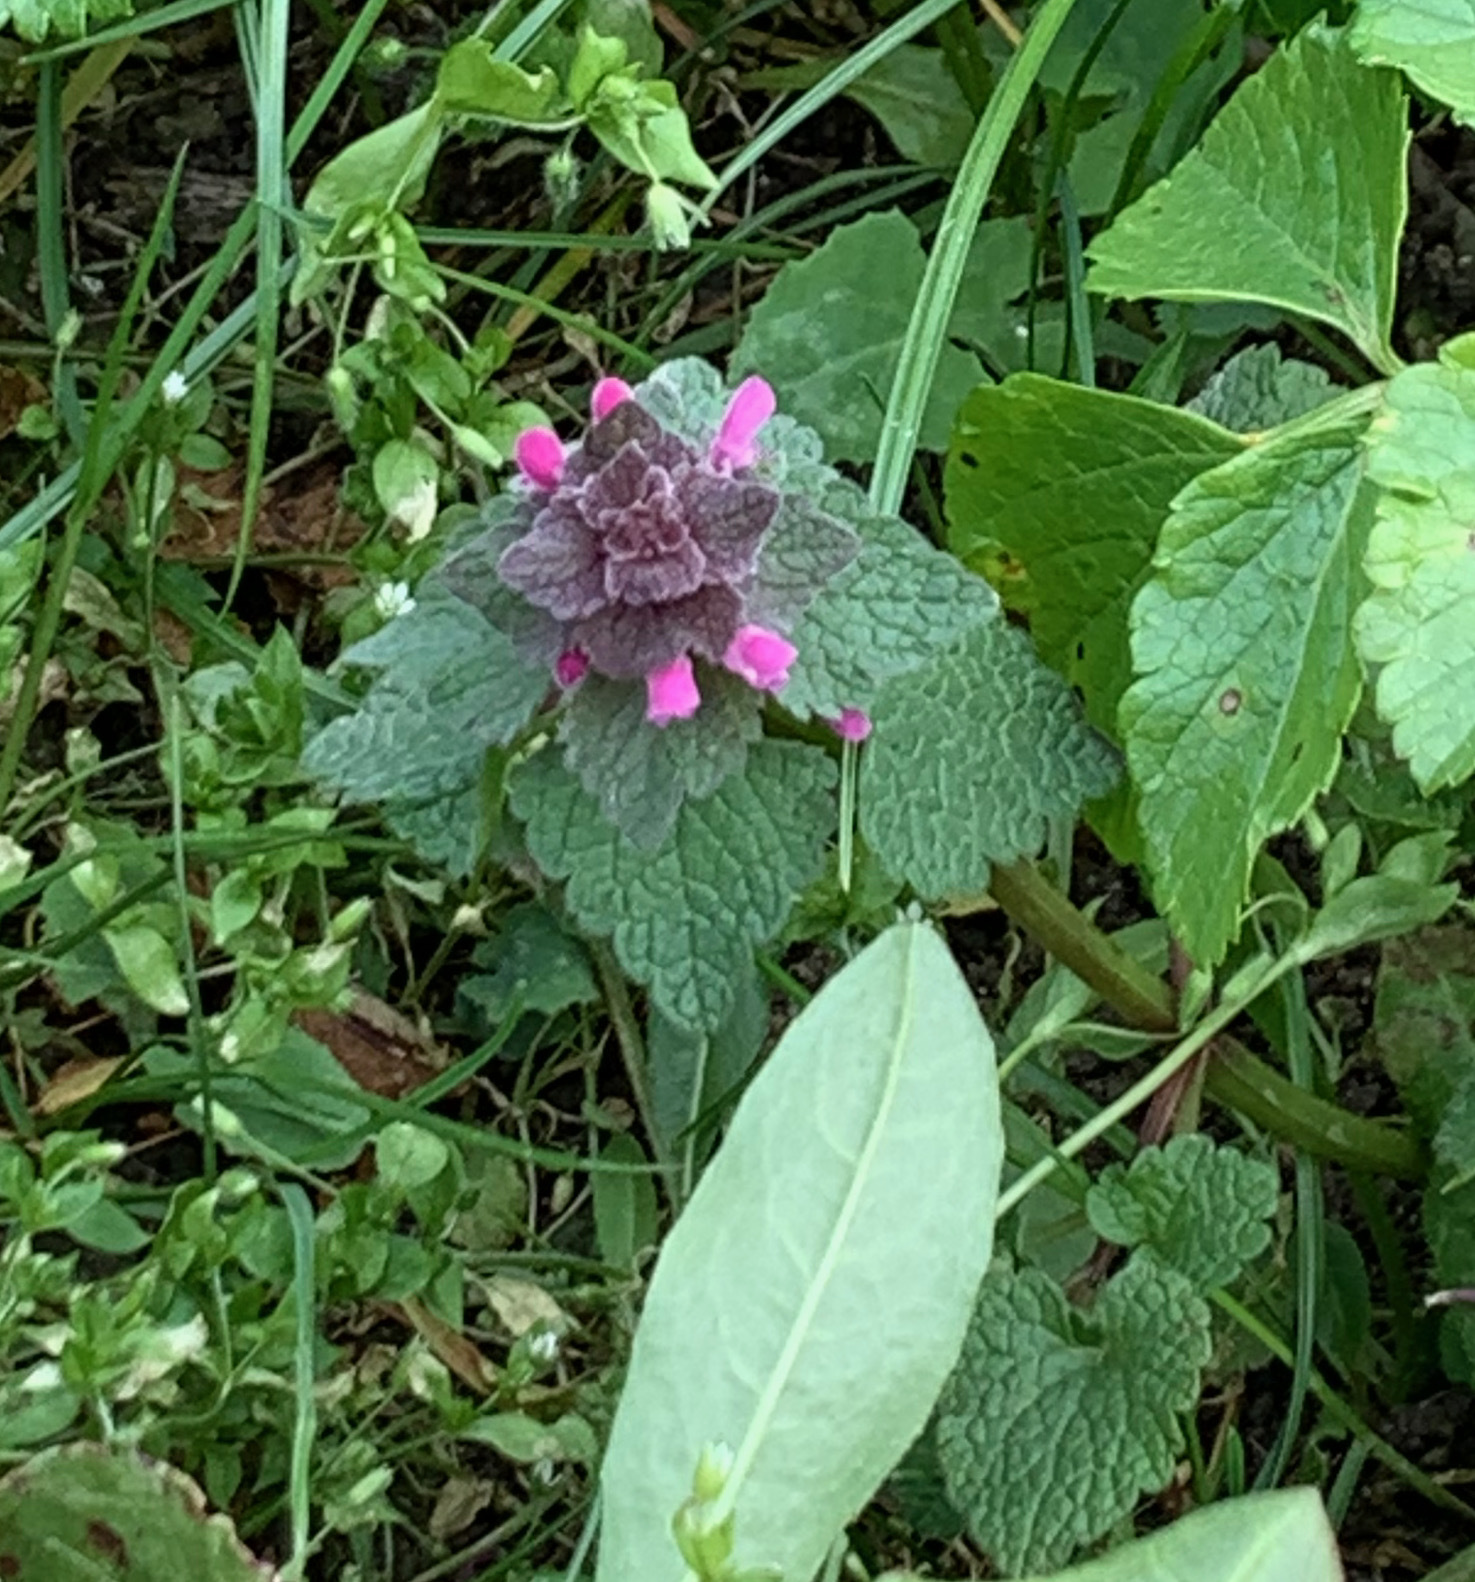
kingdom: Plantae
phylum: Tracheophyta
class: Magnoliopsida
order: Lamiales
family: Lamiaceae
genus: Lamium
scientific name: Lamium purpureum
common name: Red dead-nettle
